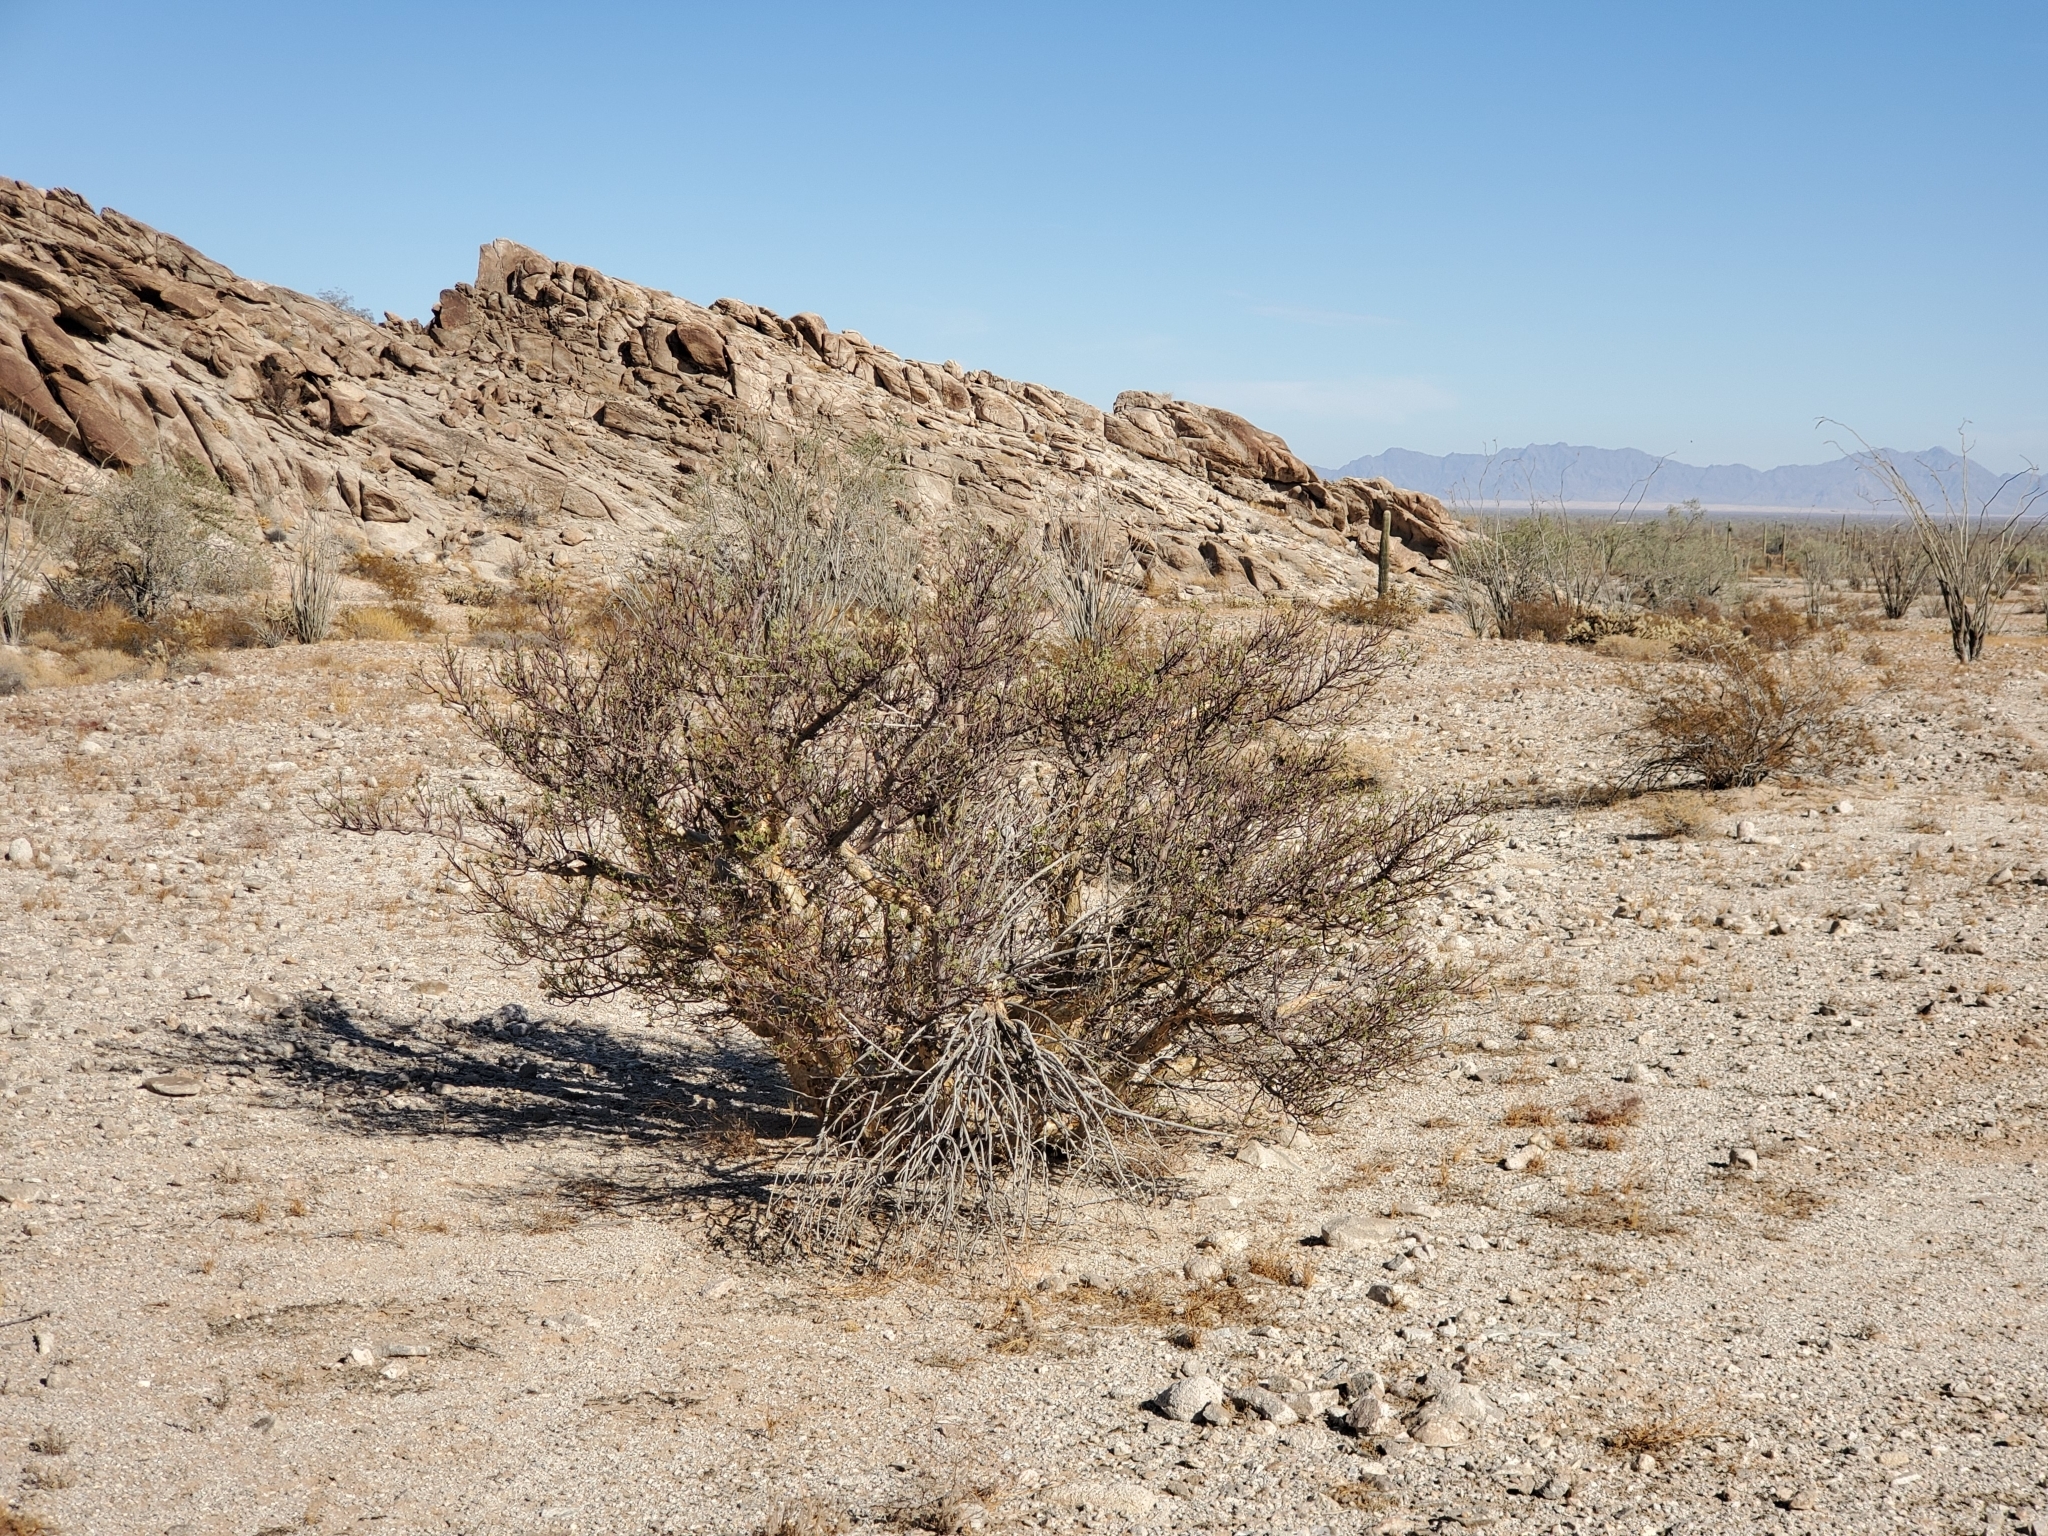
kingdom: Plantae
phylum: Tracheophyta
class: Magnoliopsida
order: Sapindales
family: Burseraceae
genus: Bursera
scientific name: Bursera microphylla
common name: Elephant tree
